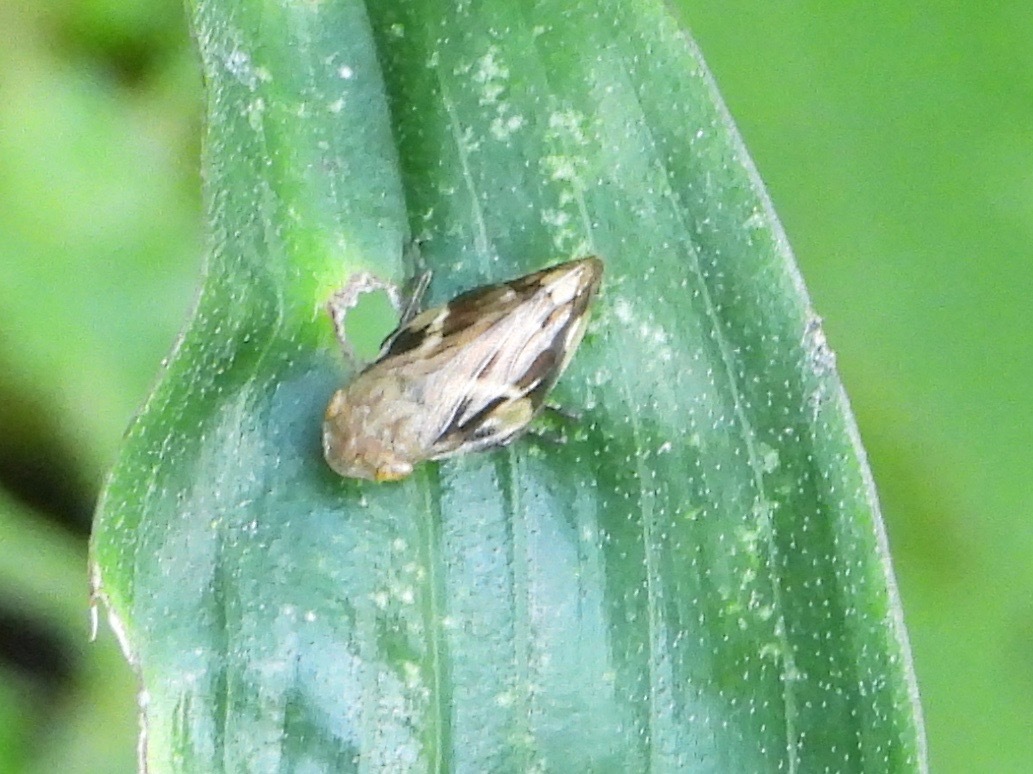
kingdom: Animalia
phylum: Arthropoda
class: Insecta
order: Hemiptera
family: Aphrophoridae
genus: Aphrophora
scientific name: Aphrophora quadrinotata
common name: Four-spotted spittlebug
